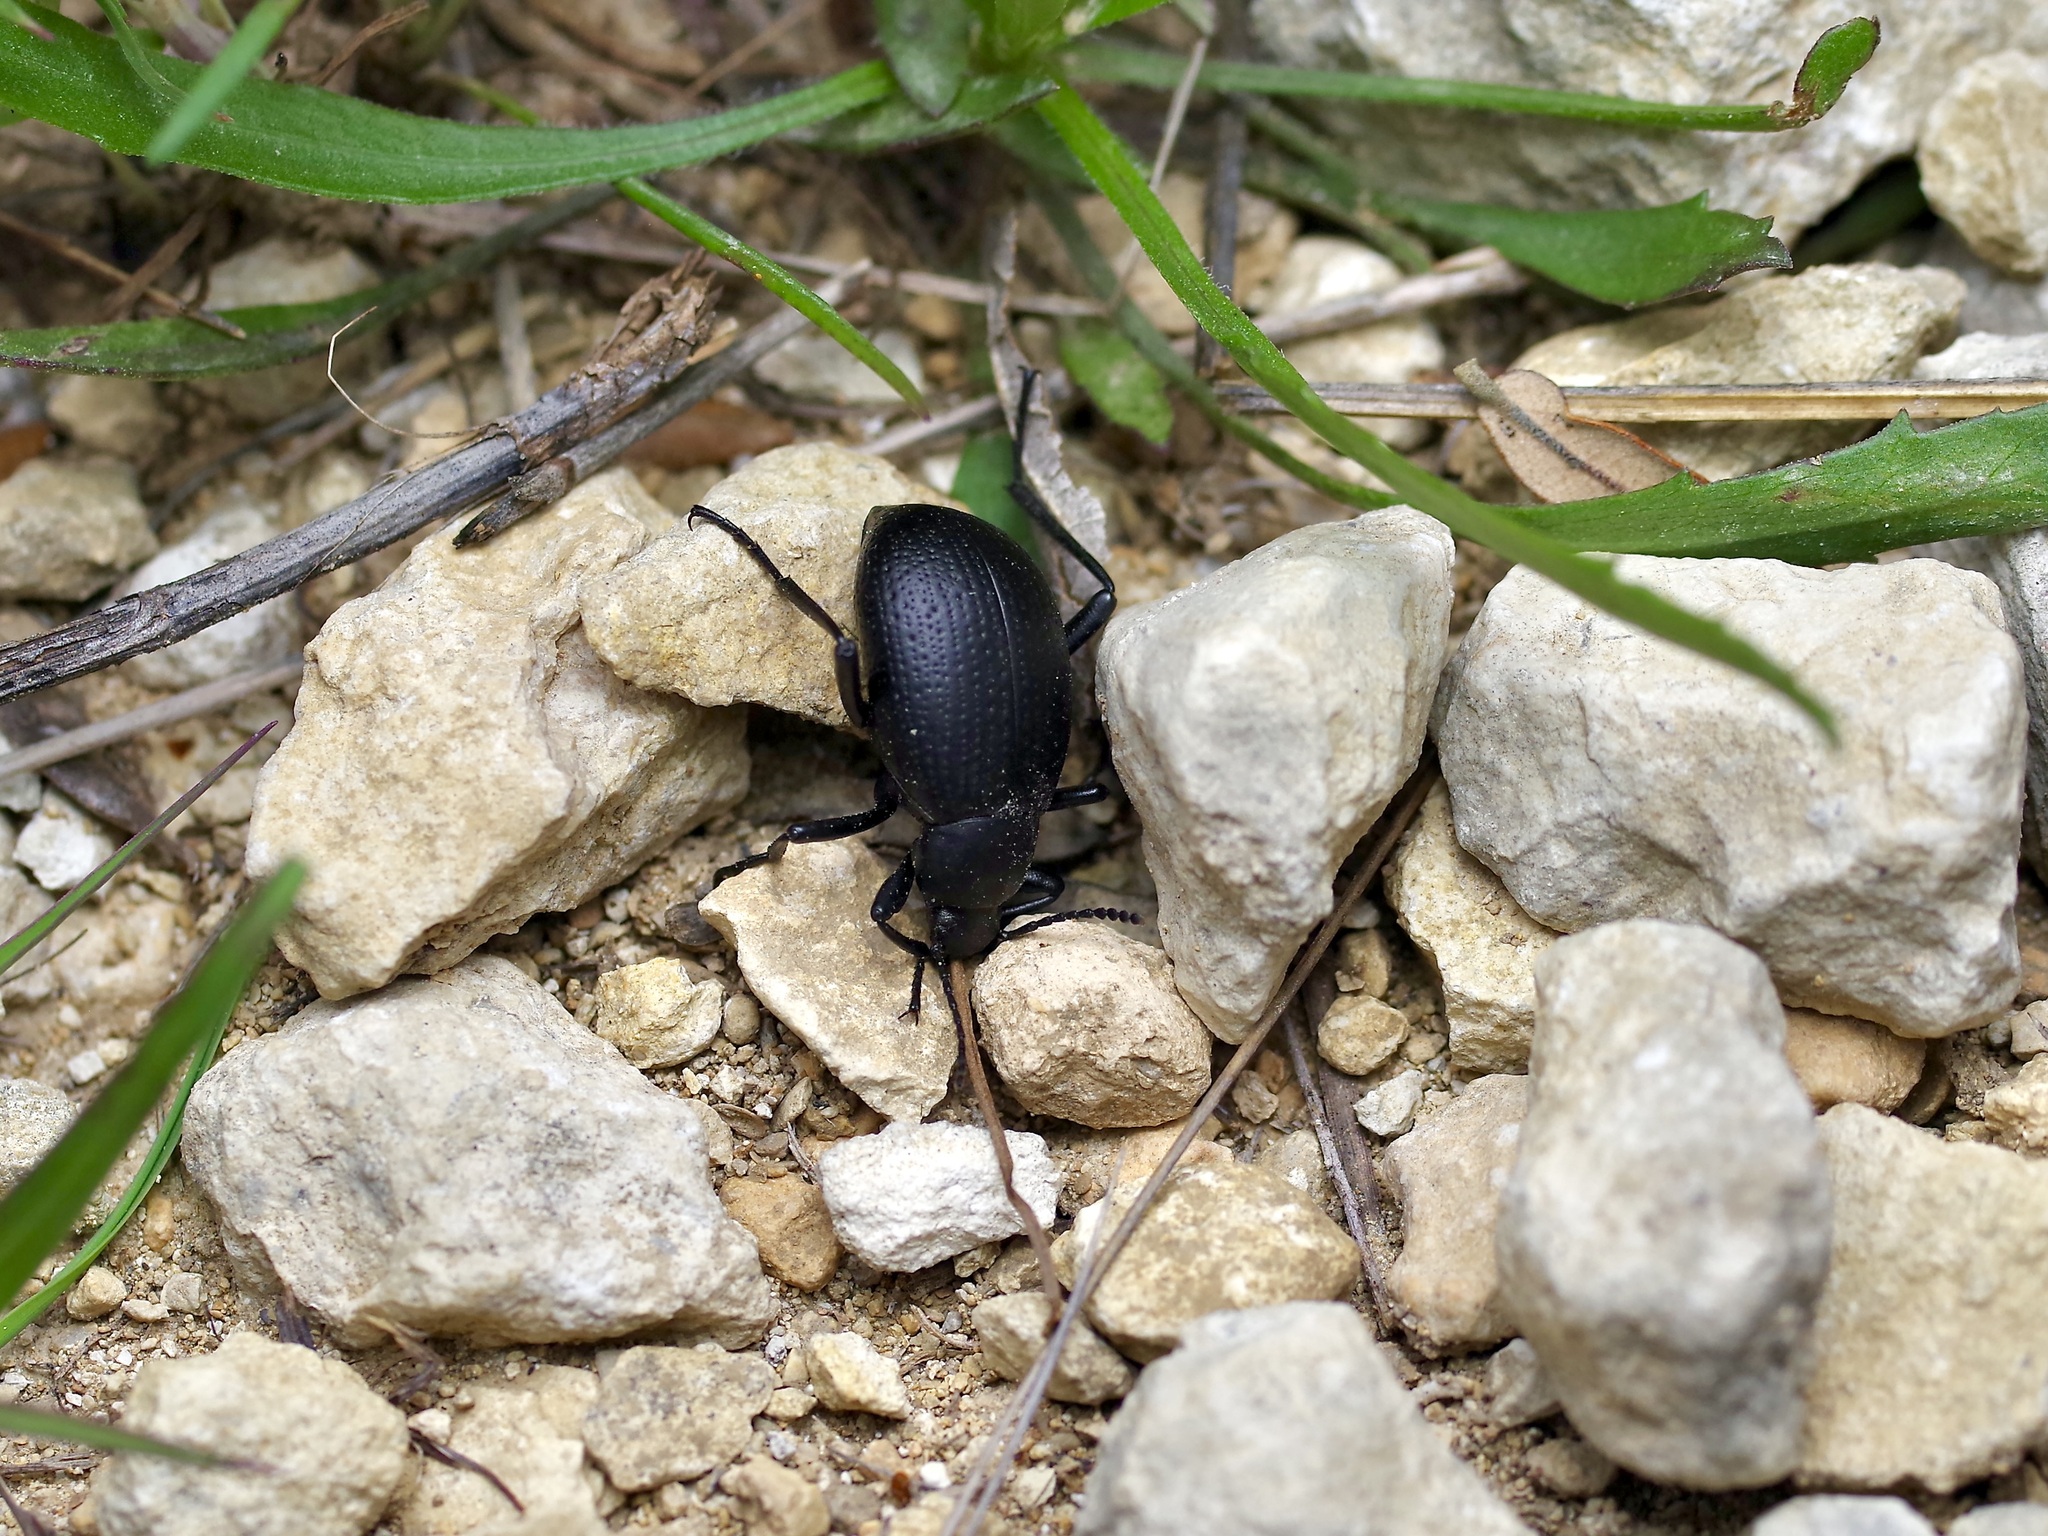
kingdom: Animalia
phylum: Arthropoda
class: Insecta
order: Coleoptera
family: Tenebrionidae
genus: Eleodes
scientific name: Eleodes goryi
